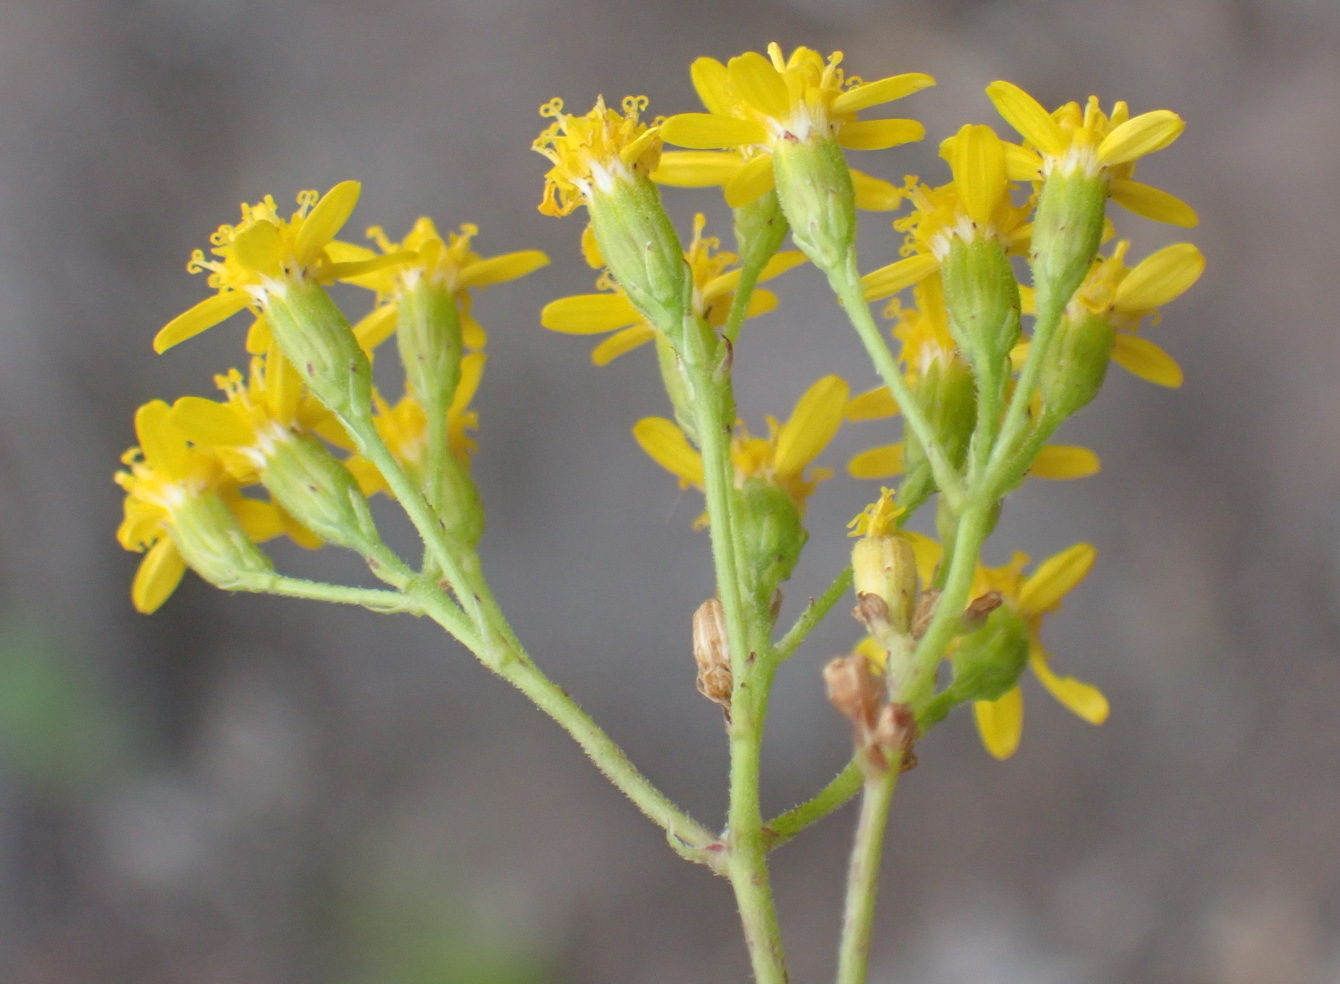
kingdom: Plantae
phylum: Tracheophyta
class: Magnoliopsida
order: Asterales
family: Asteraceae
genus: Cineraria
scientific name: Cineraria geifolia
